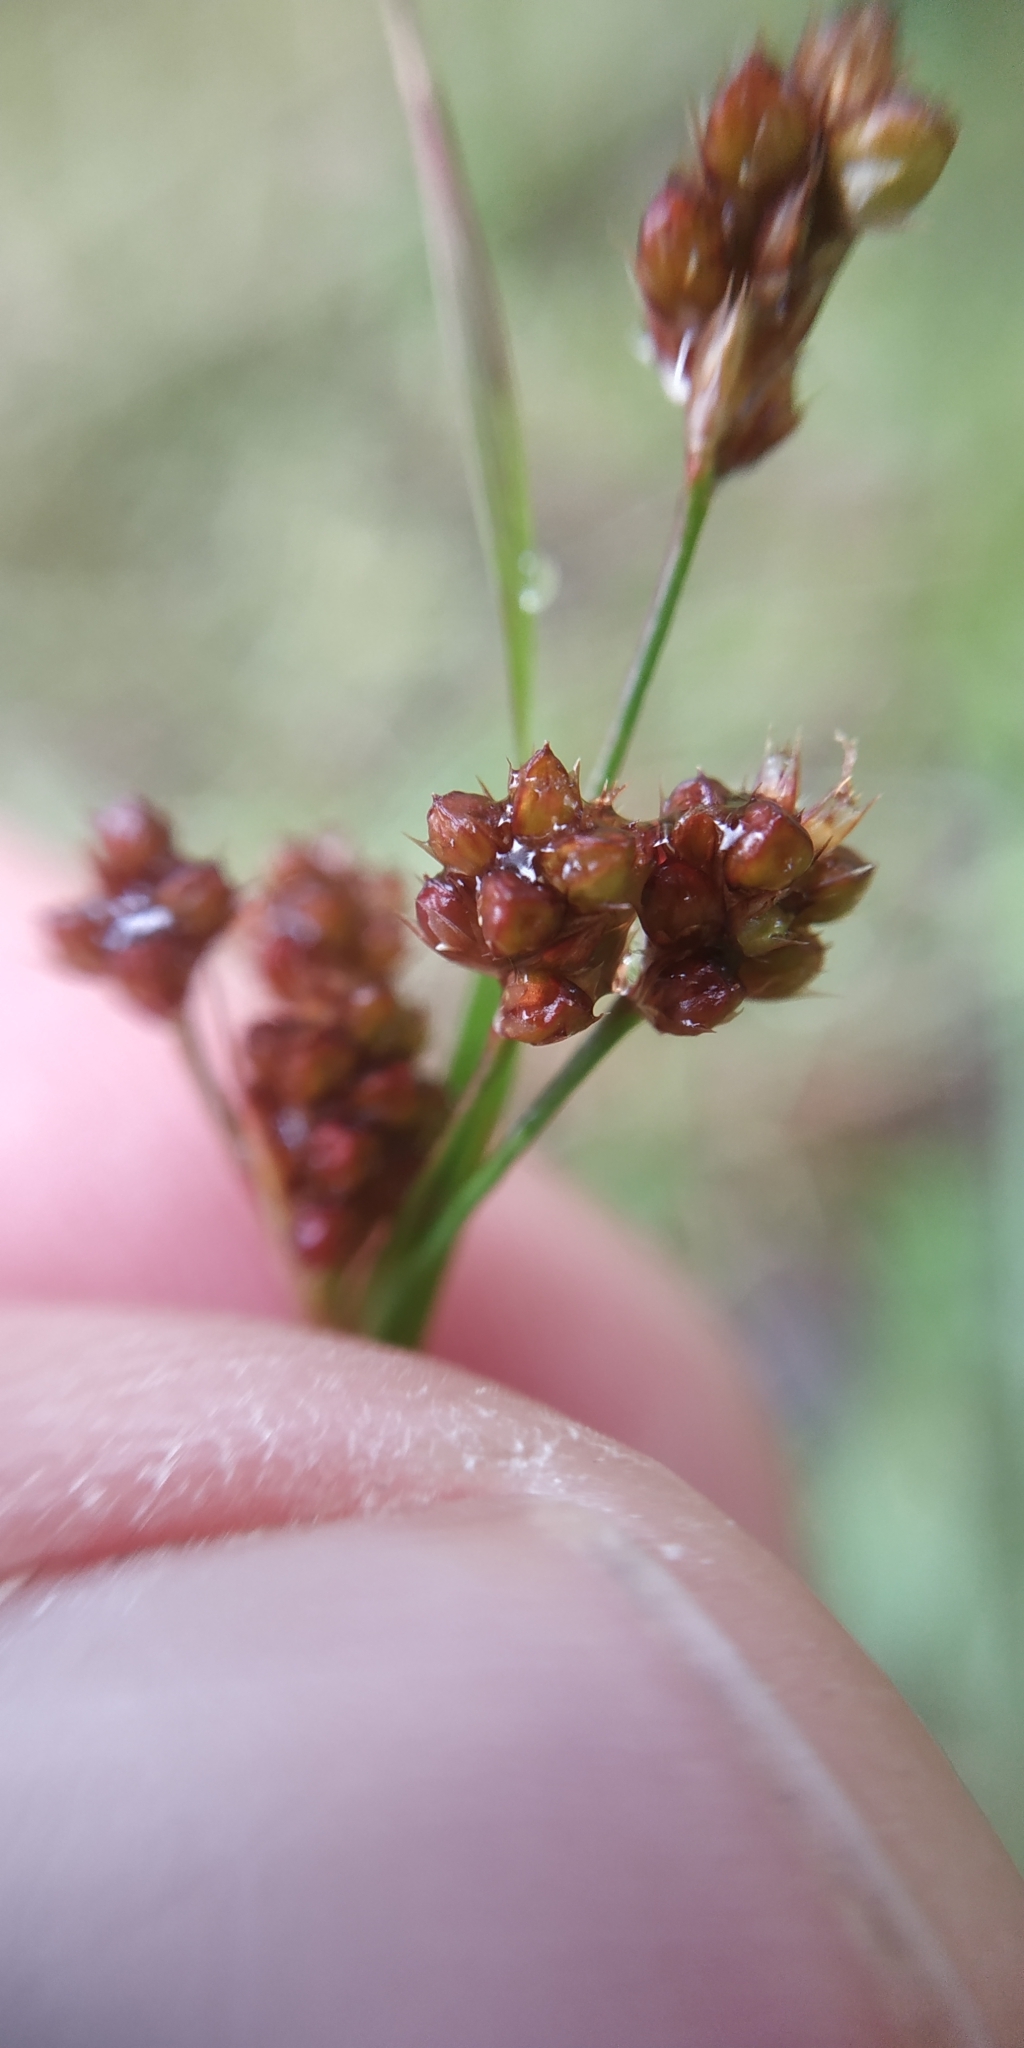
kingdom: Plantae
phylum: Tracheophyta
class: Liliopsida
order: Poales
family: Juncaceae
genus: Luzula
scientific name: Luzula pallescens
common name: Fen wood-rush
